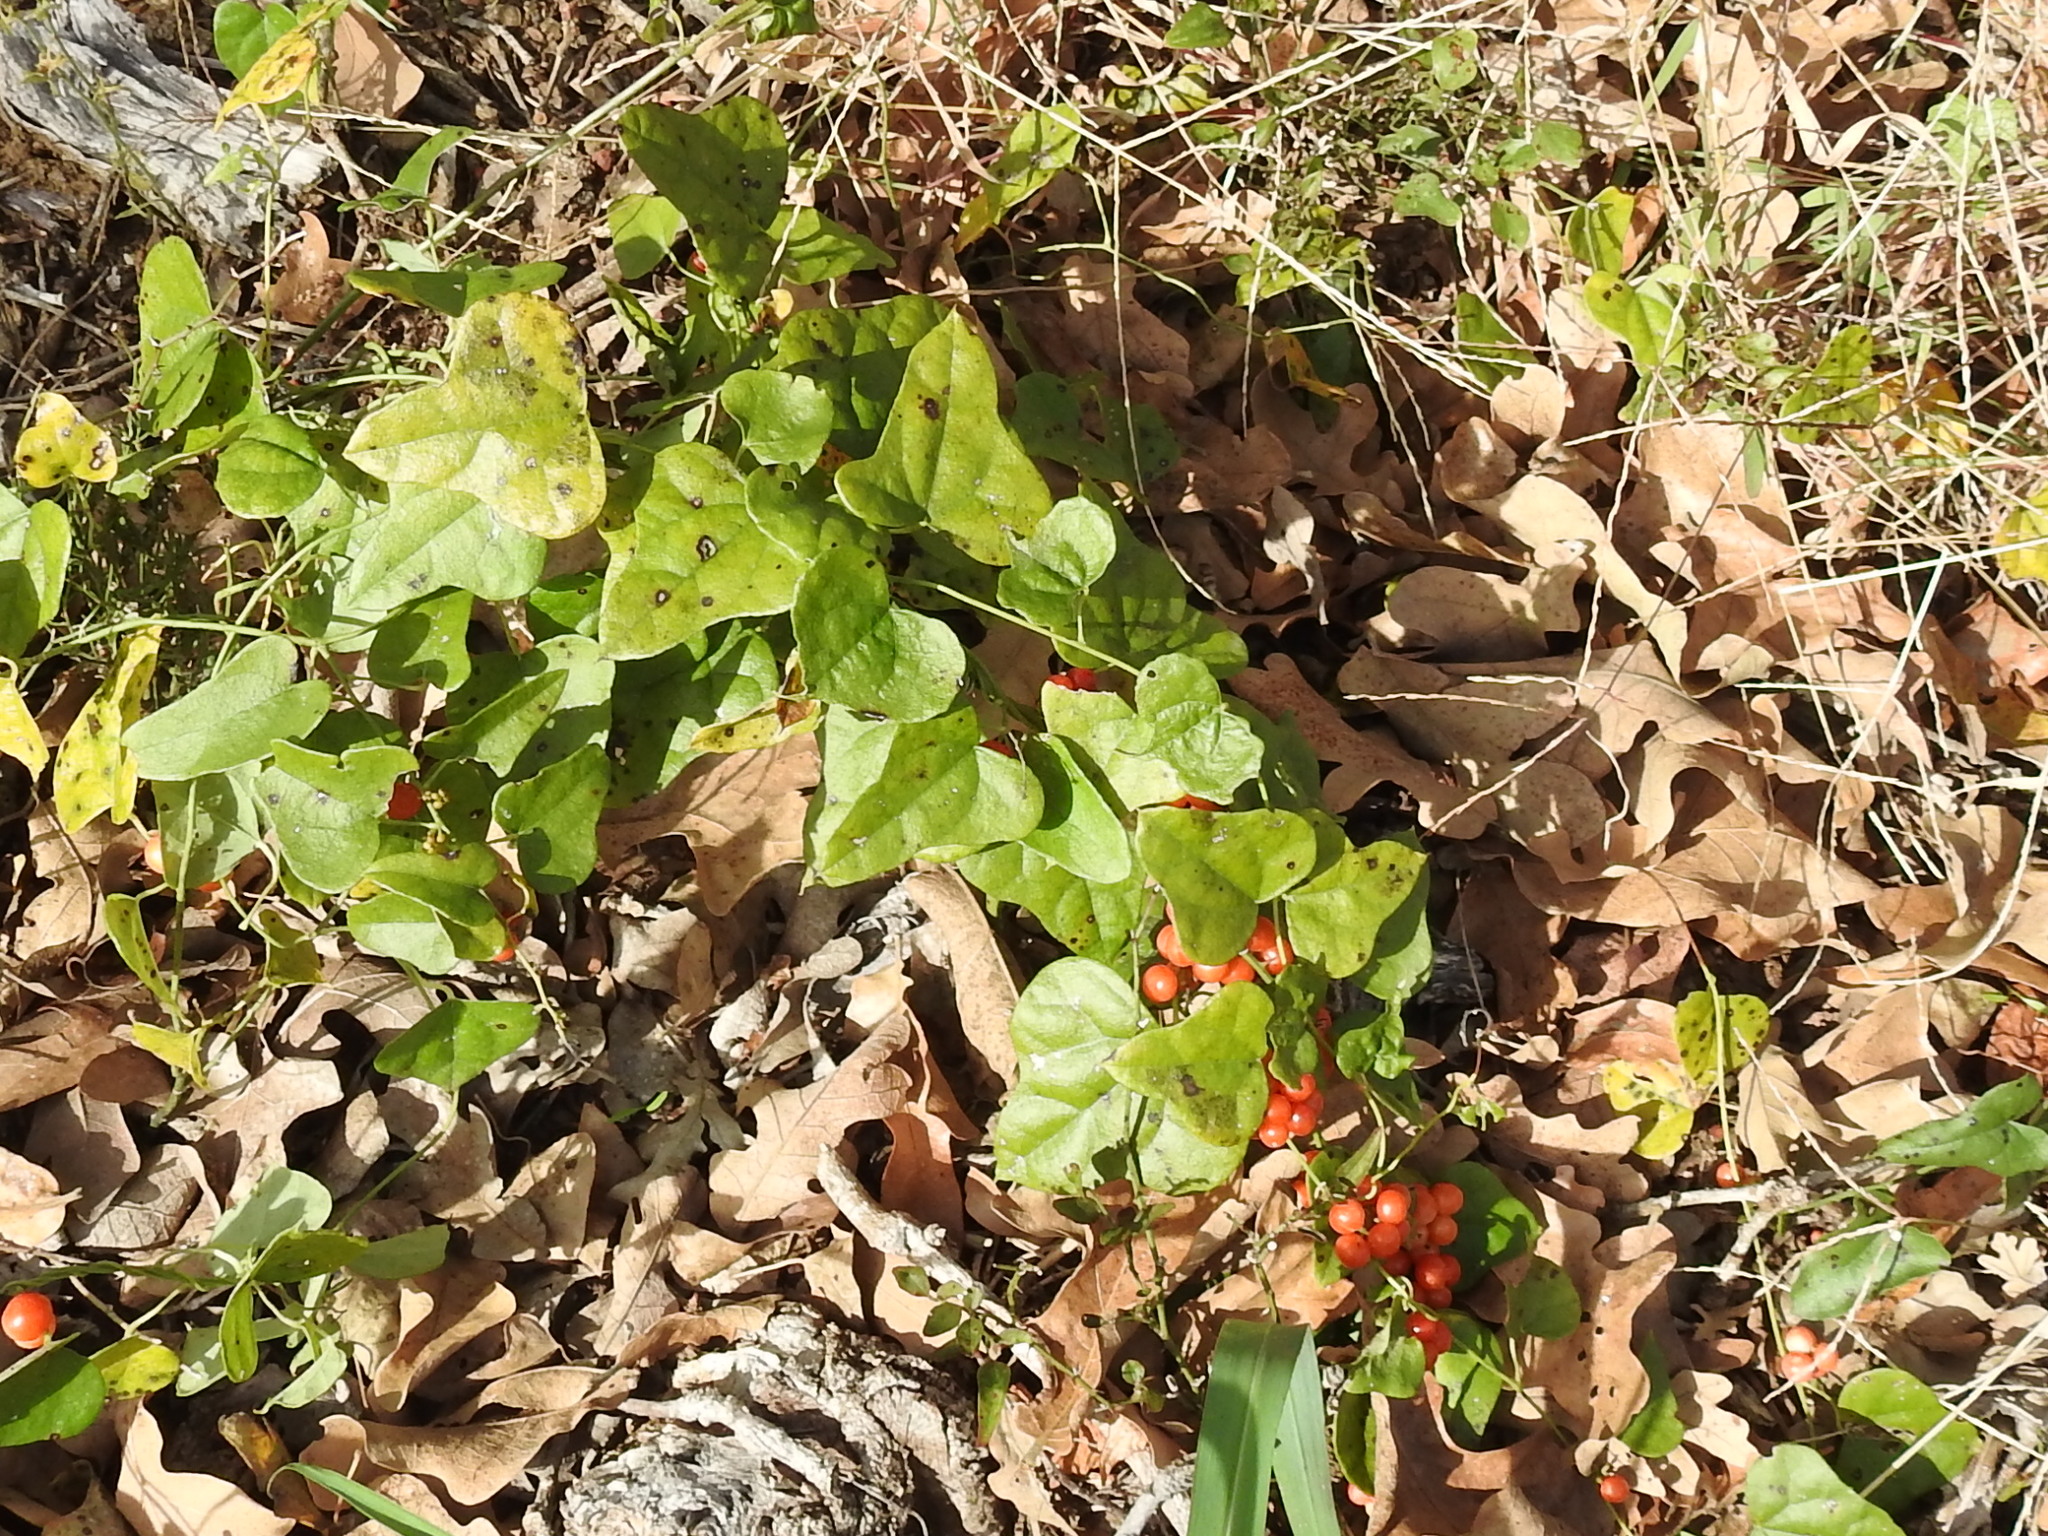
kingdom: Plantae
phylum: Tracheophyta
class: Magnoliopsida
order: Ranunculales
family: Menispermaceae
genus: Cocculus
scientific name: Cocculus carolinus
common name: Carolina moonseed
